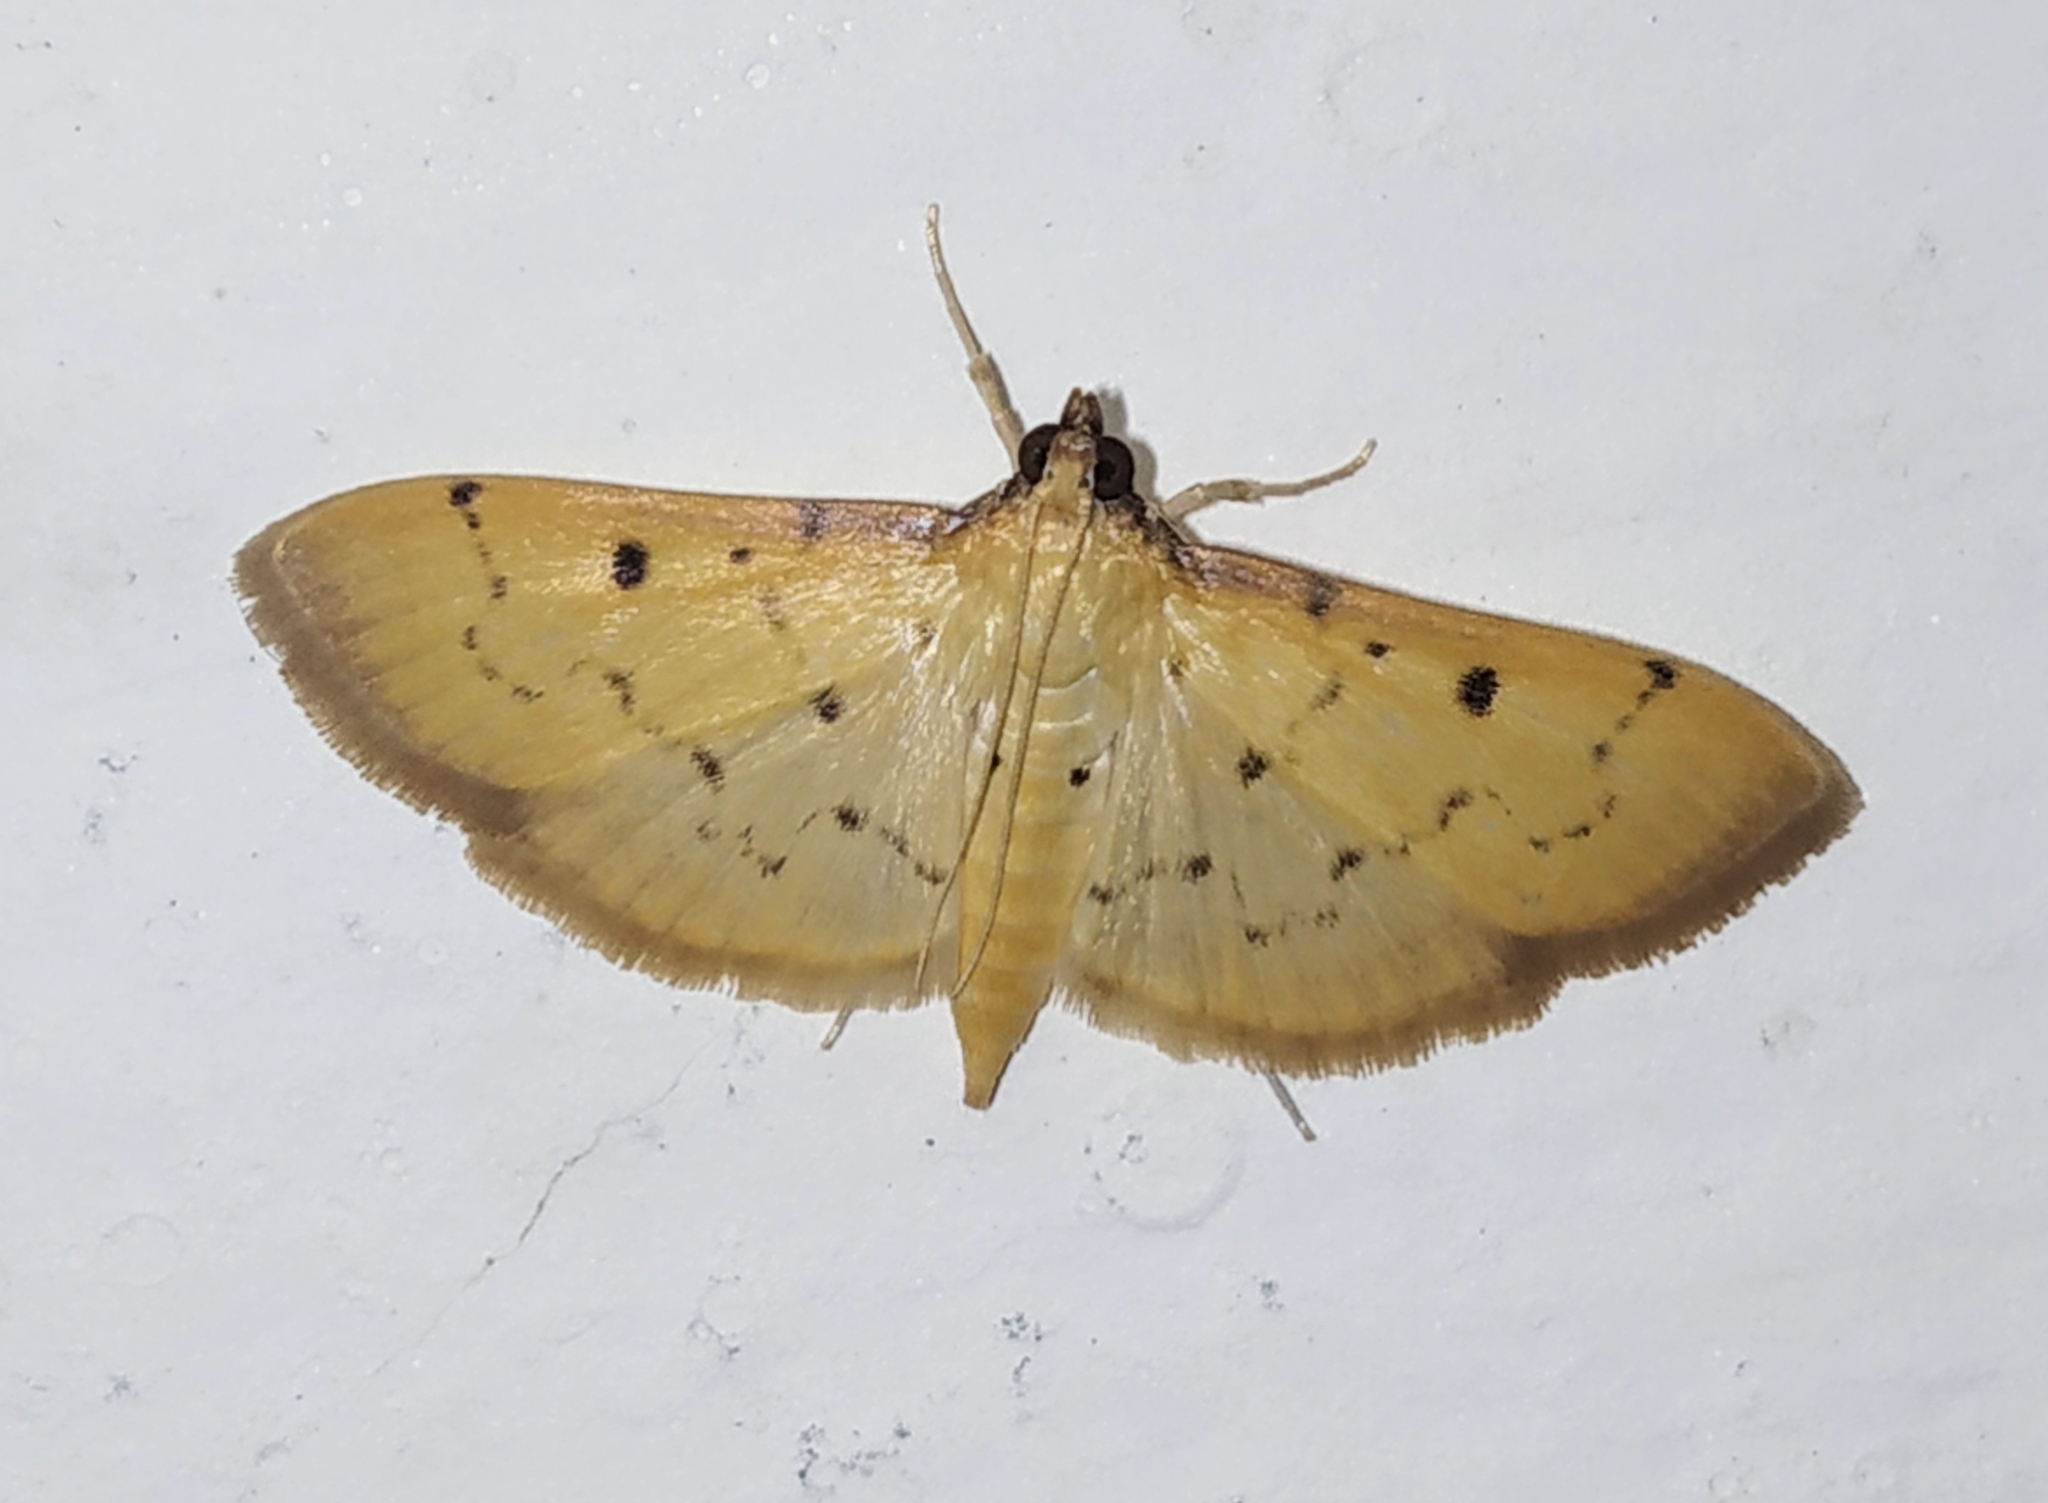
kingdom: Animalia
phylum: Arthropoda
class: Insecta
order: Lepidoptera
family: Crambidae
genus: Herpetogramma
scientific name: Herpetogramma basalis
